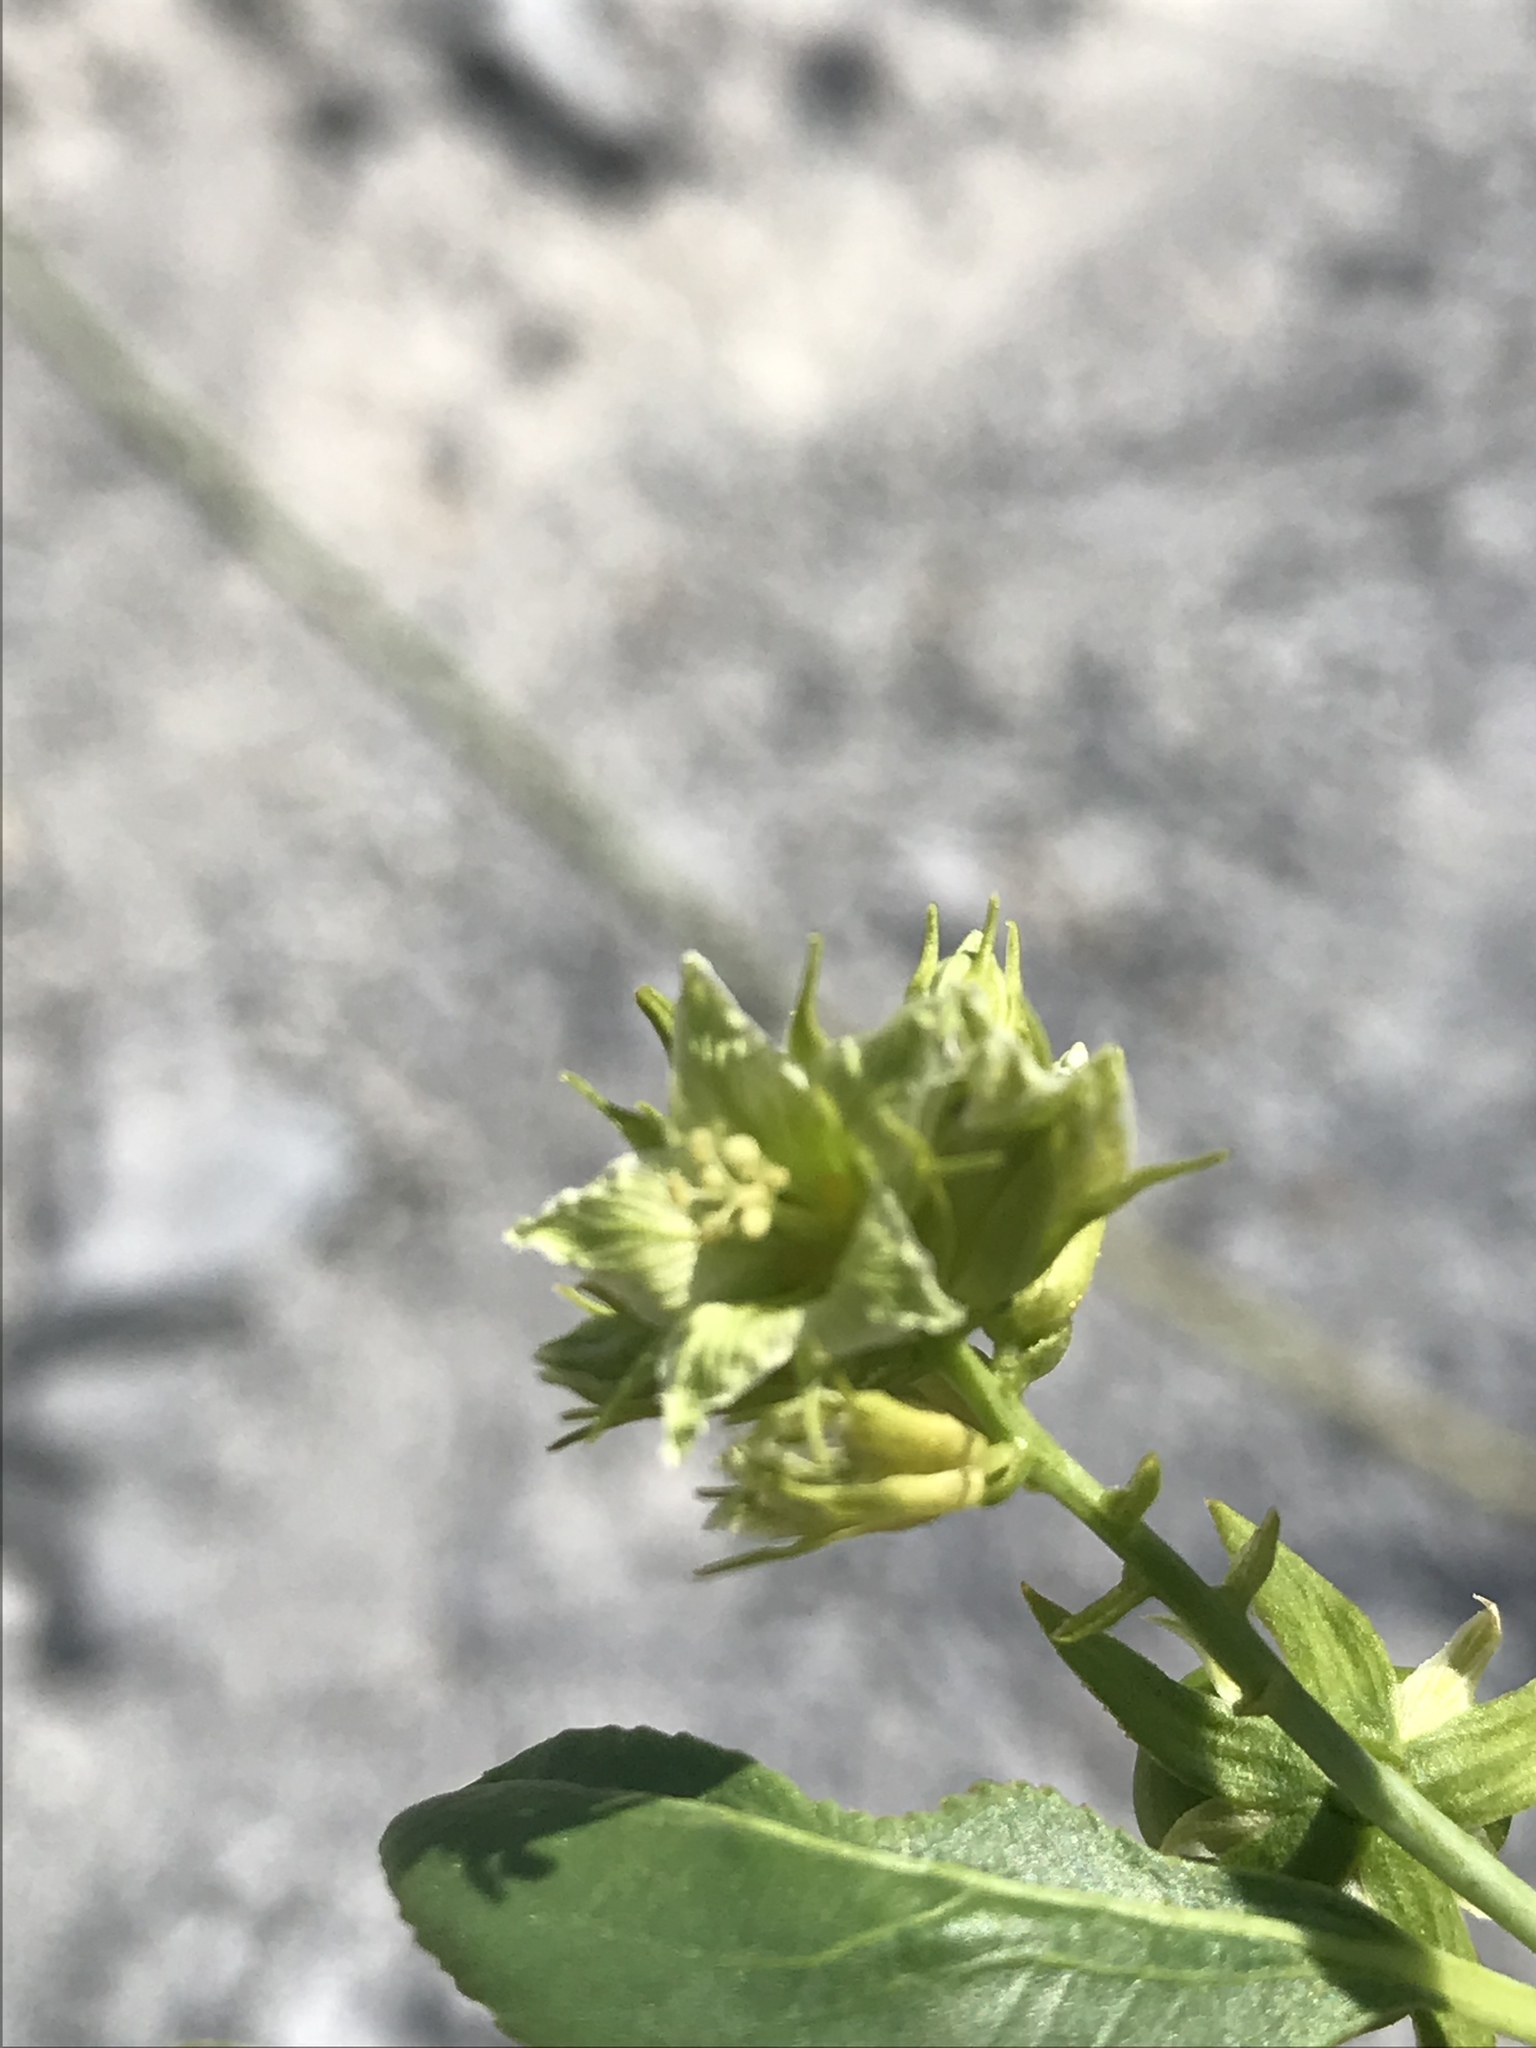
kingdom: Plantae
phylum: Tracheophyta
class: Magnoliopsida
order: Malpighiales
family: Euphorbiaceae
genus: Ditaxis
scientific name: Ditaxis brandegeei
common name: Sonoran silverbush
